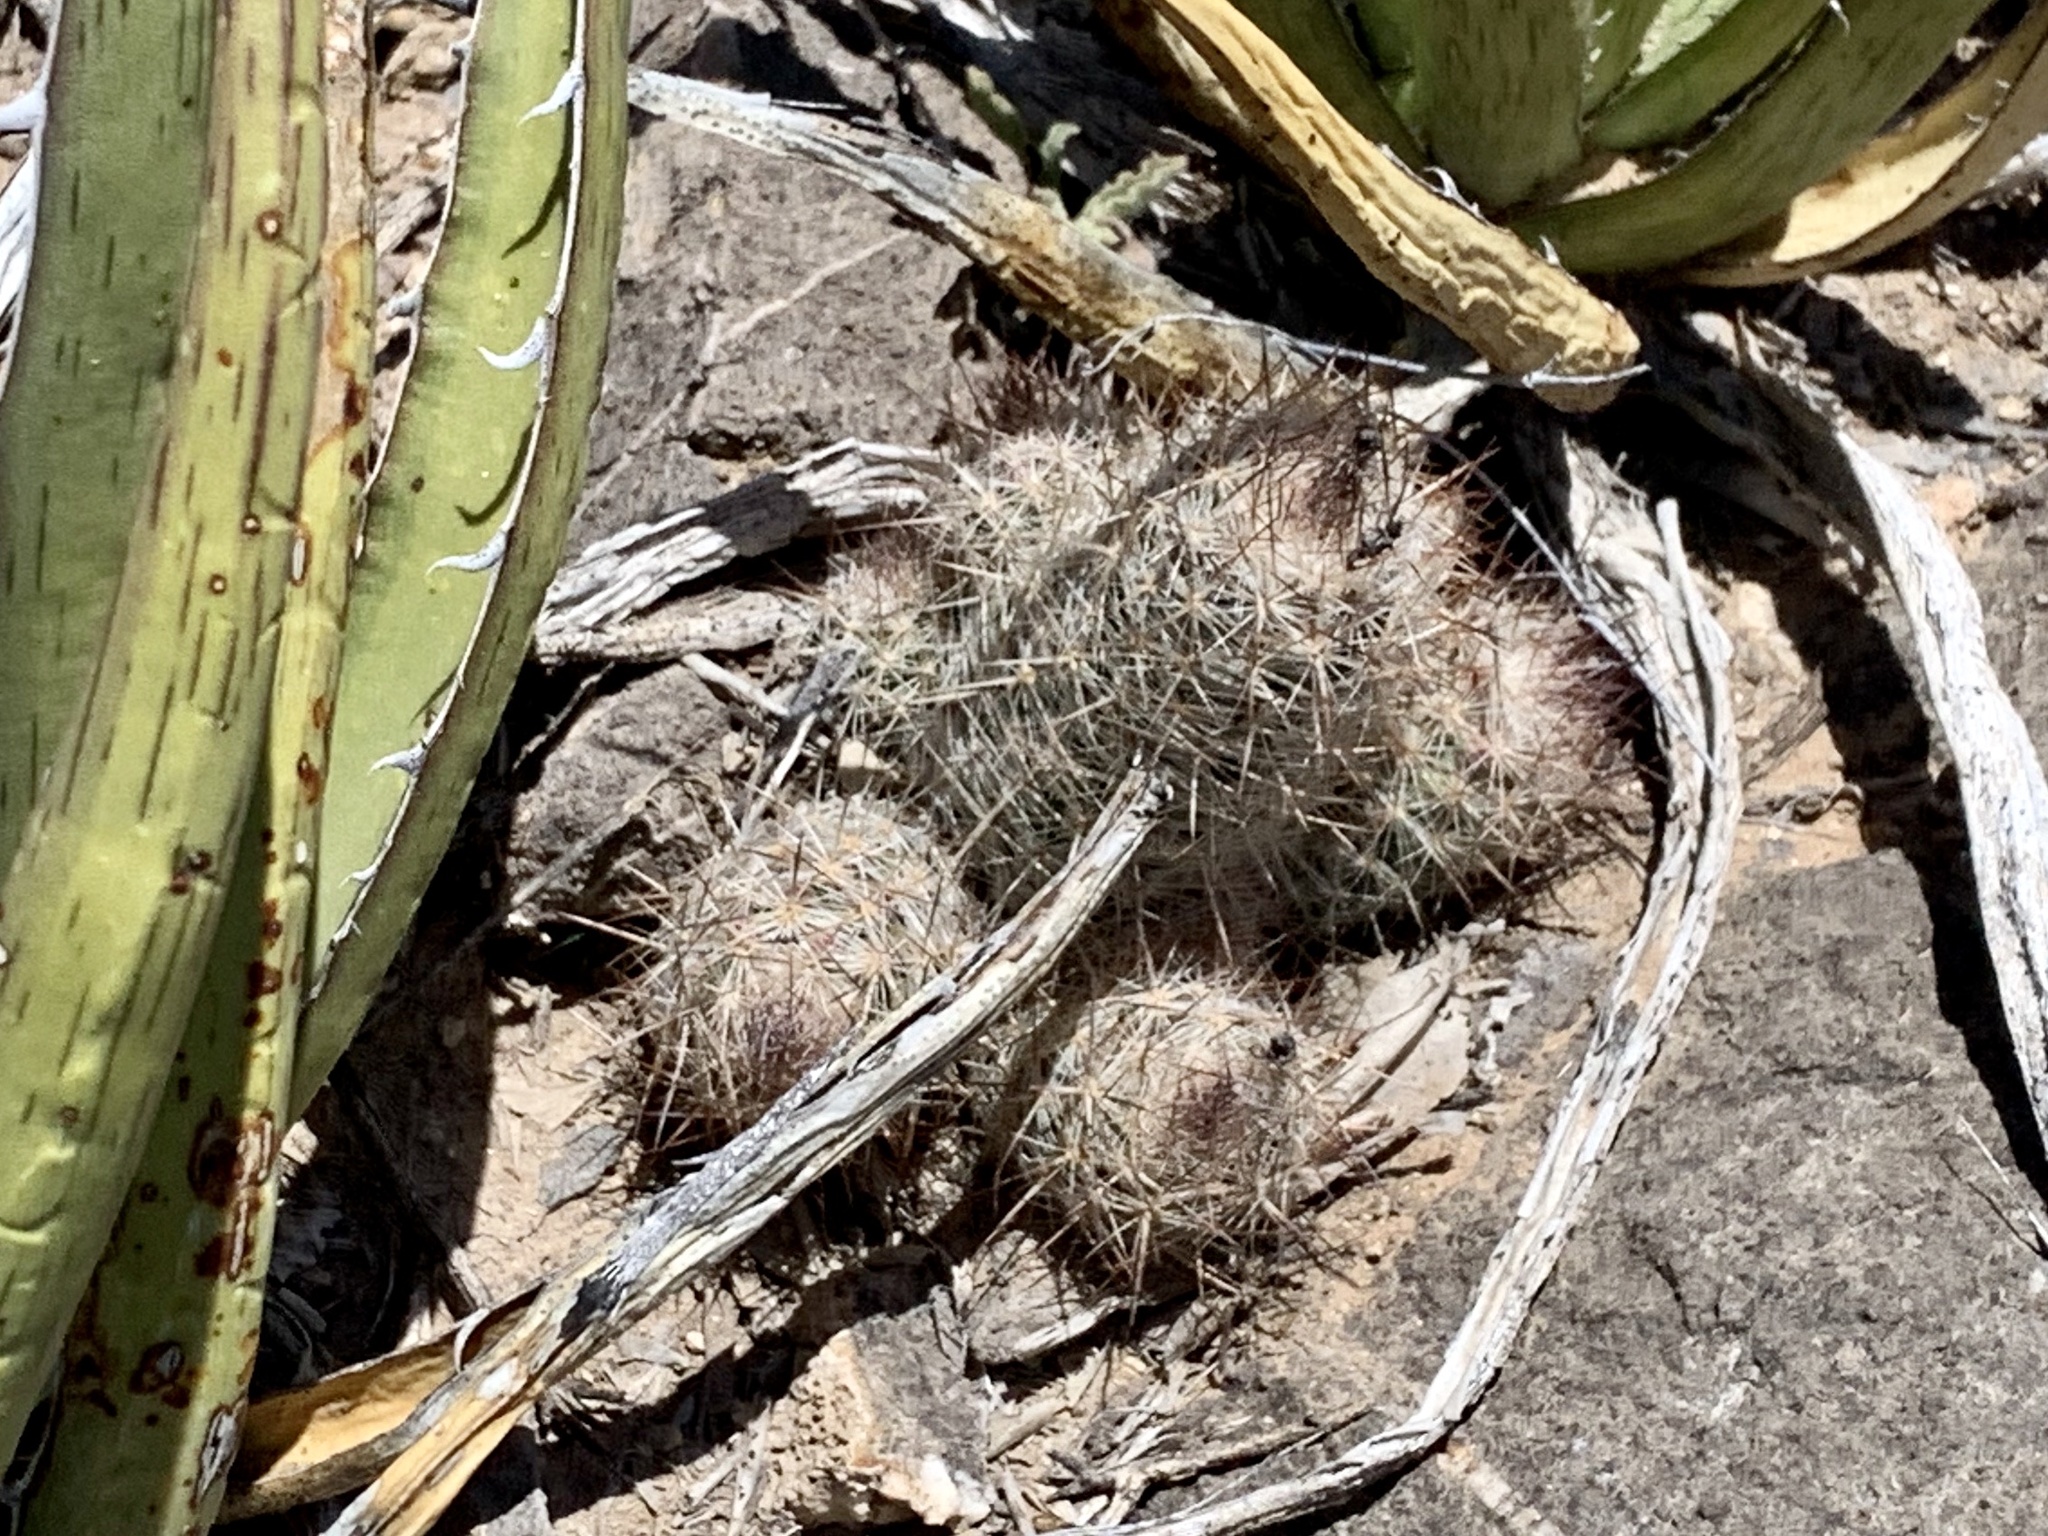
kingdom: Plantae
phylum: Tracheophyta
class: Magnoliopsida
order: Caryophyllales
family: Cactaceae
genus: Pelecyphora
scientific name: Pelecyphora tuberculosa
